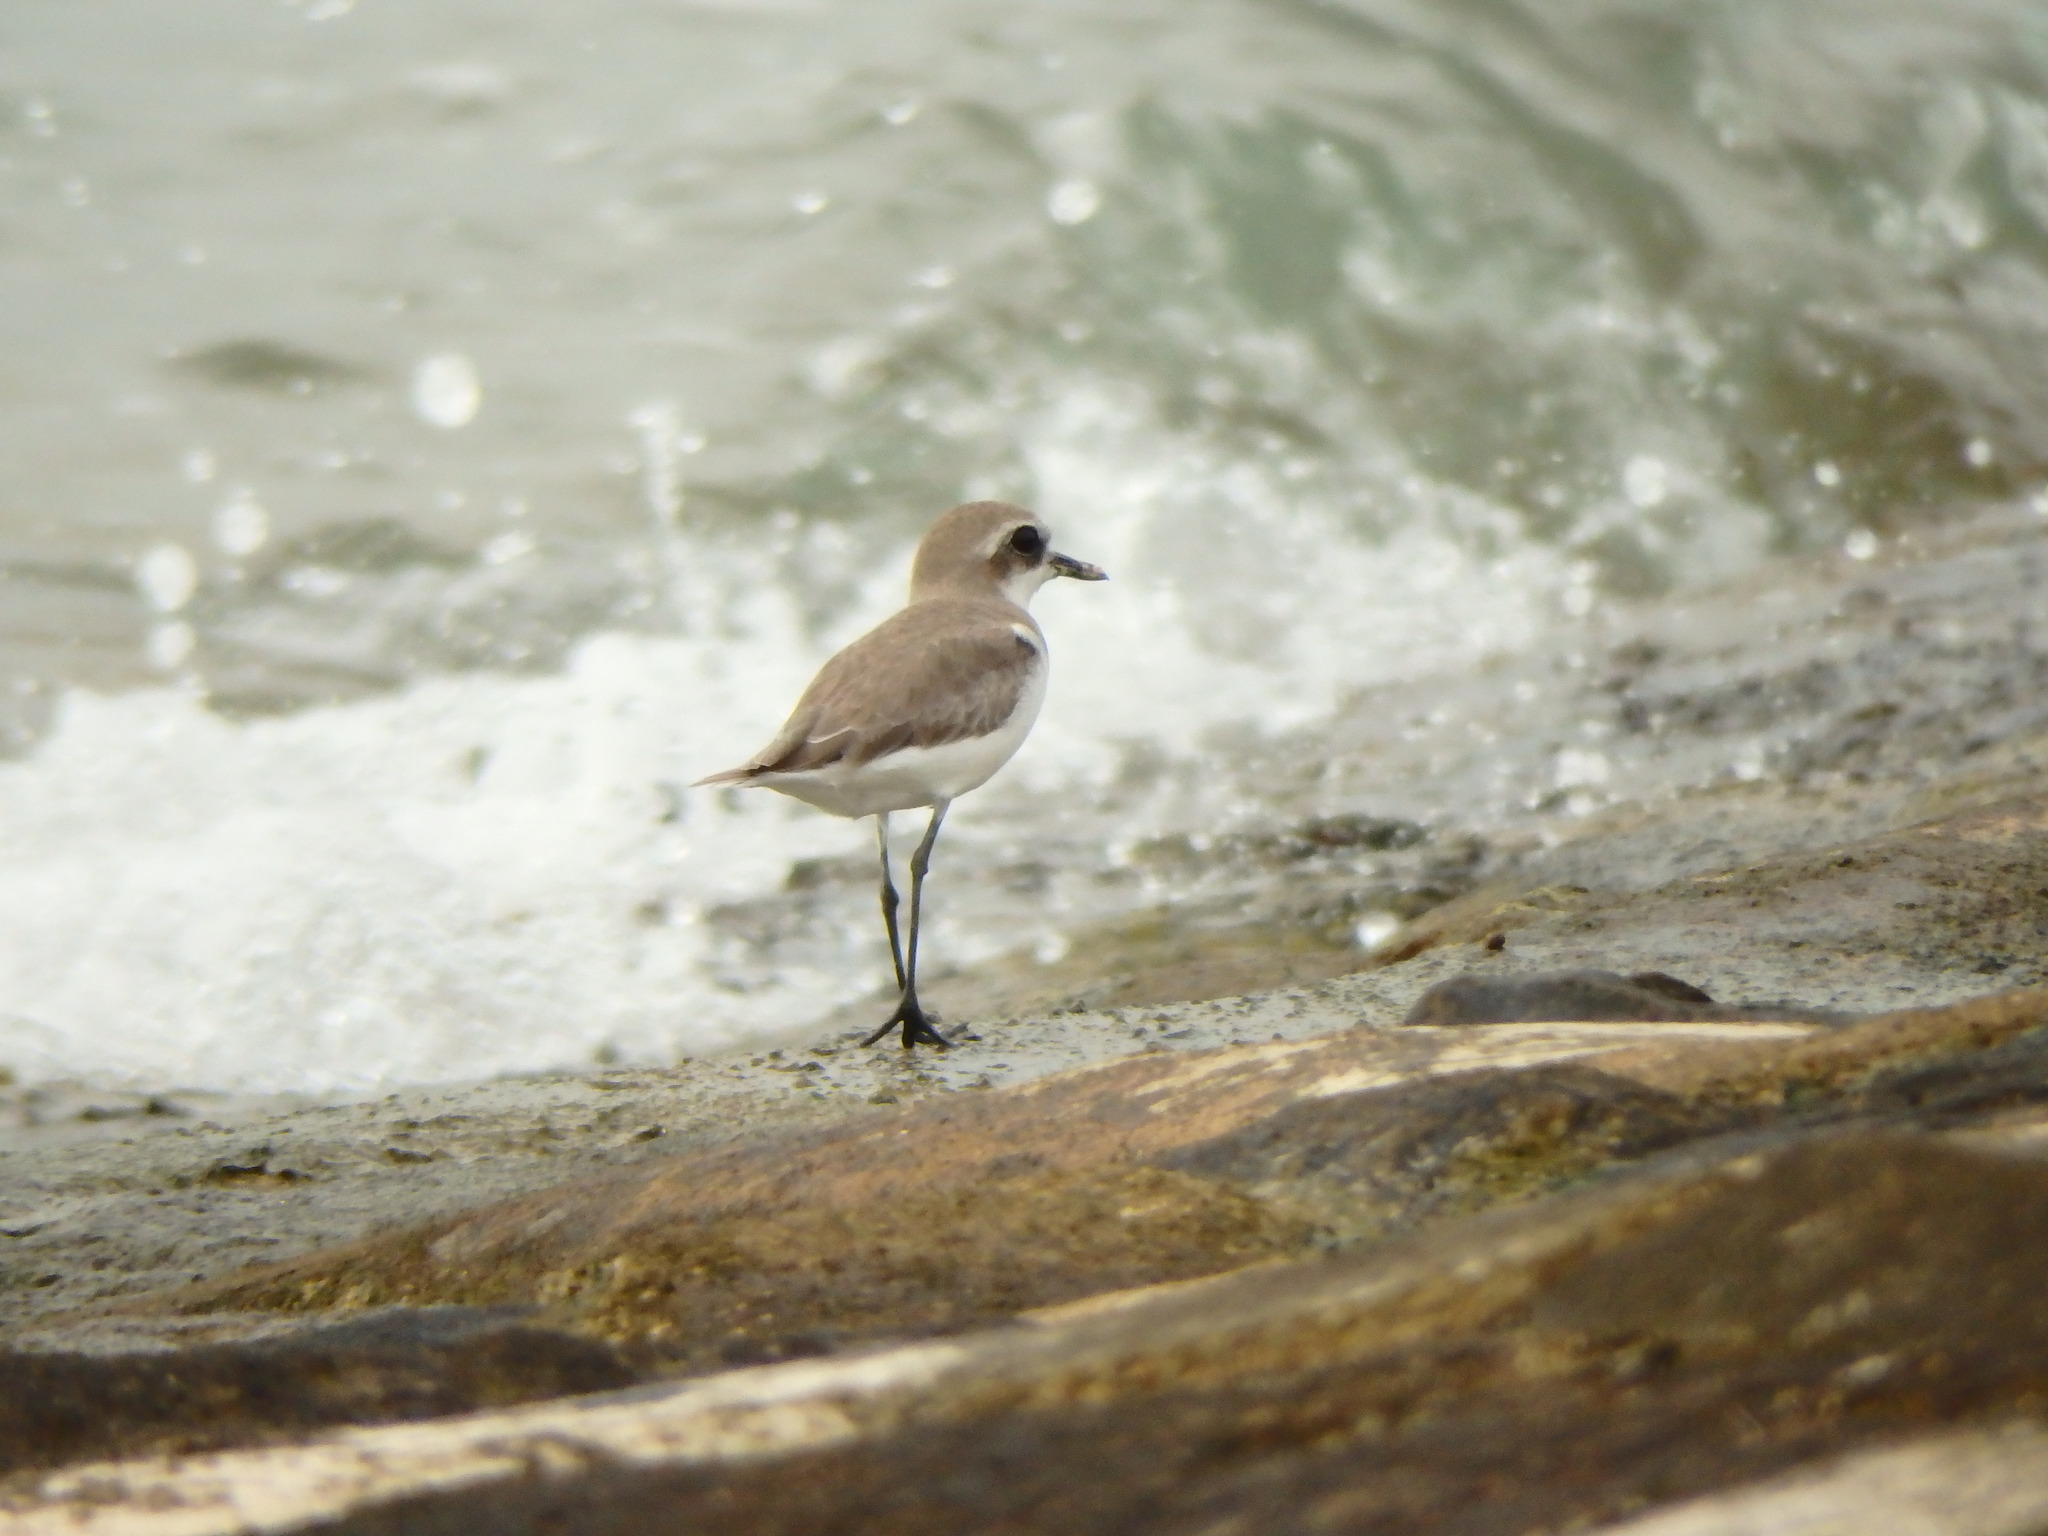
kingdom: Animalia
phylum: Chordata
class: Aves
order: Charadriiformes
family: Charadriidae
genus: Anarhynchus
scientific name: Anarhynchus
